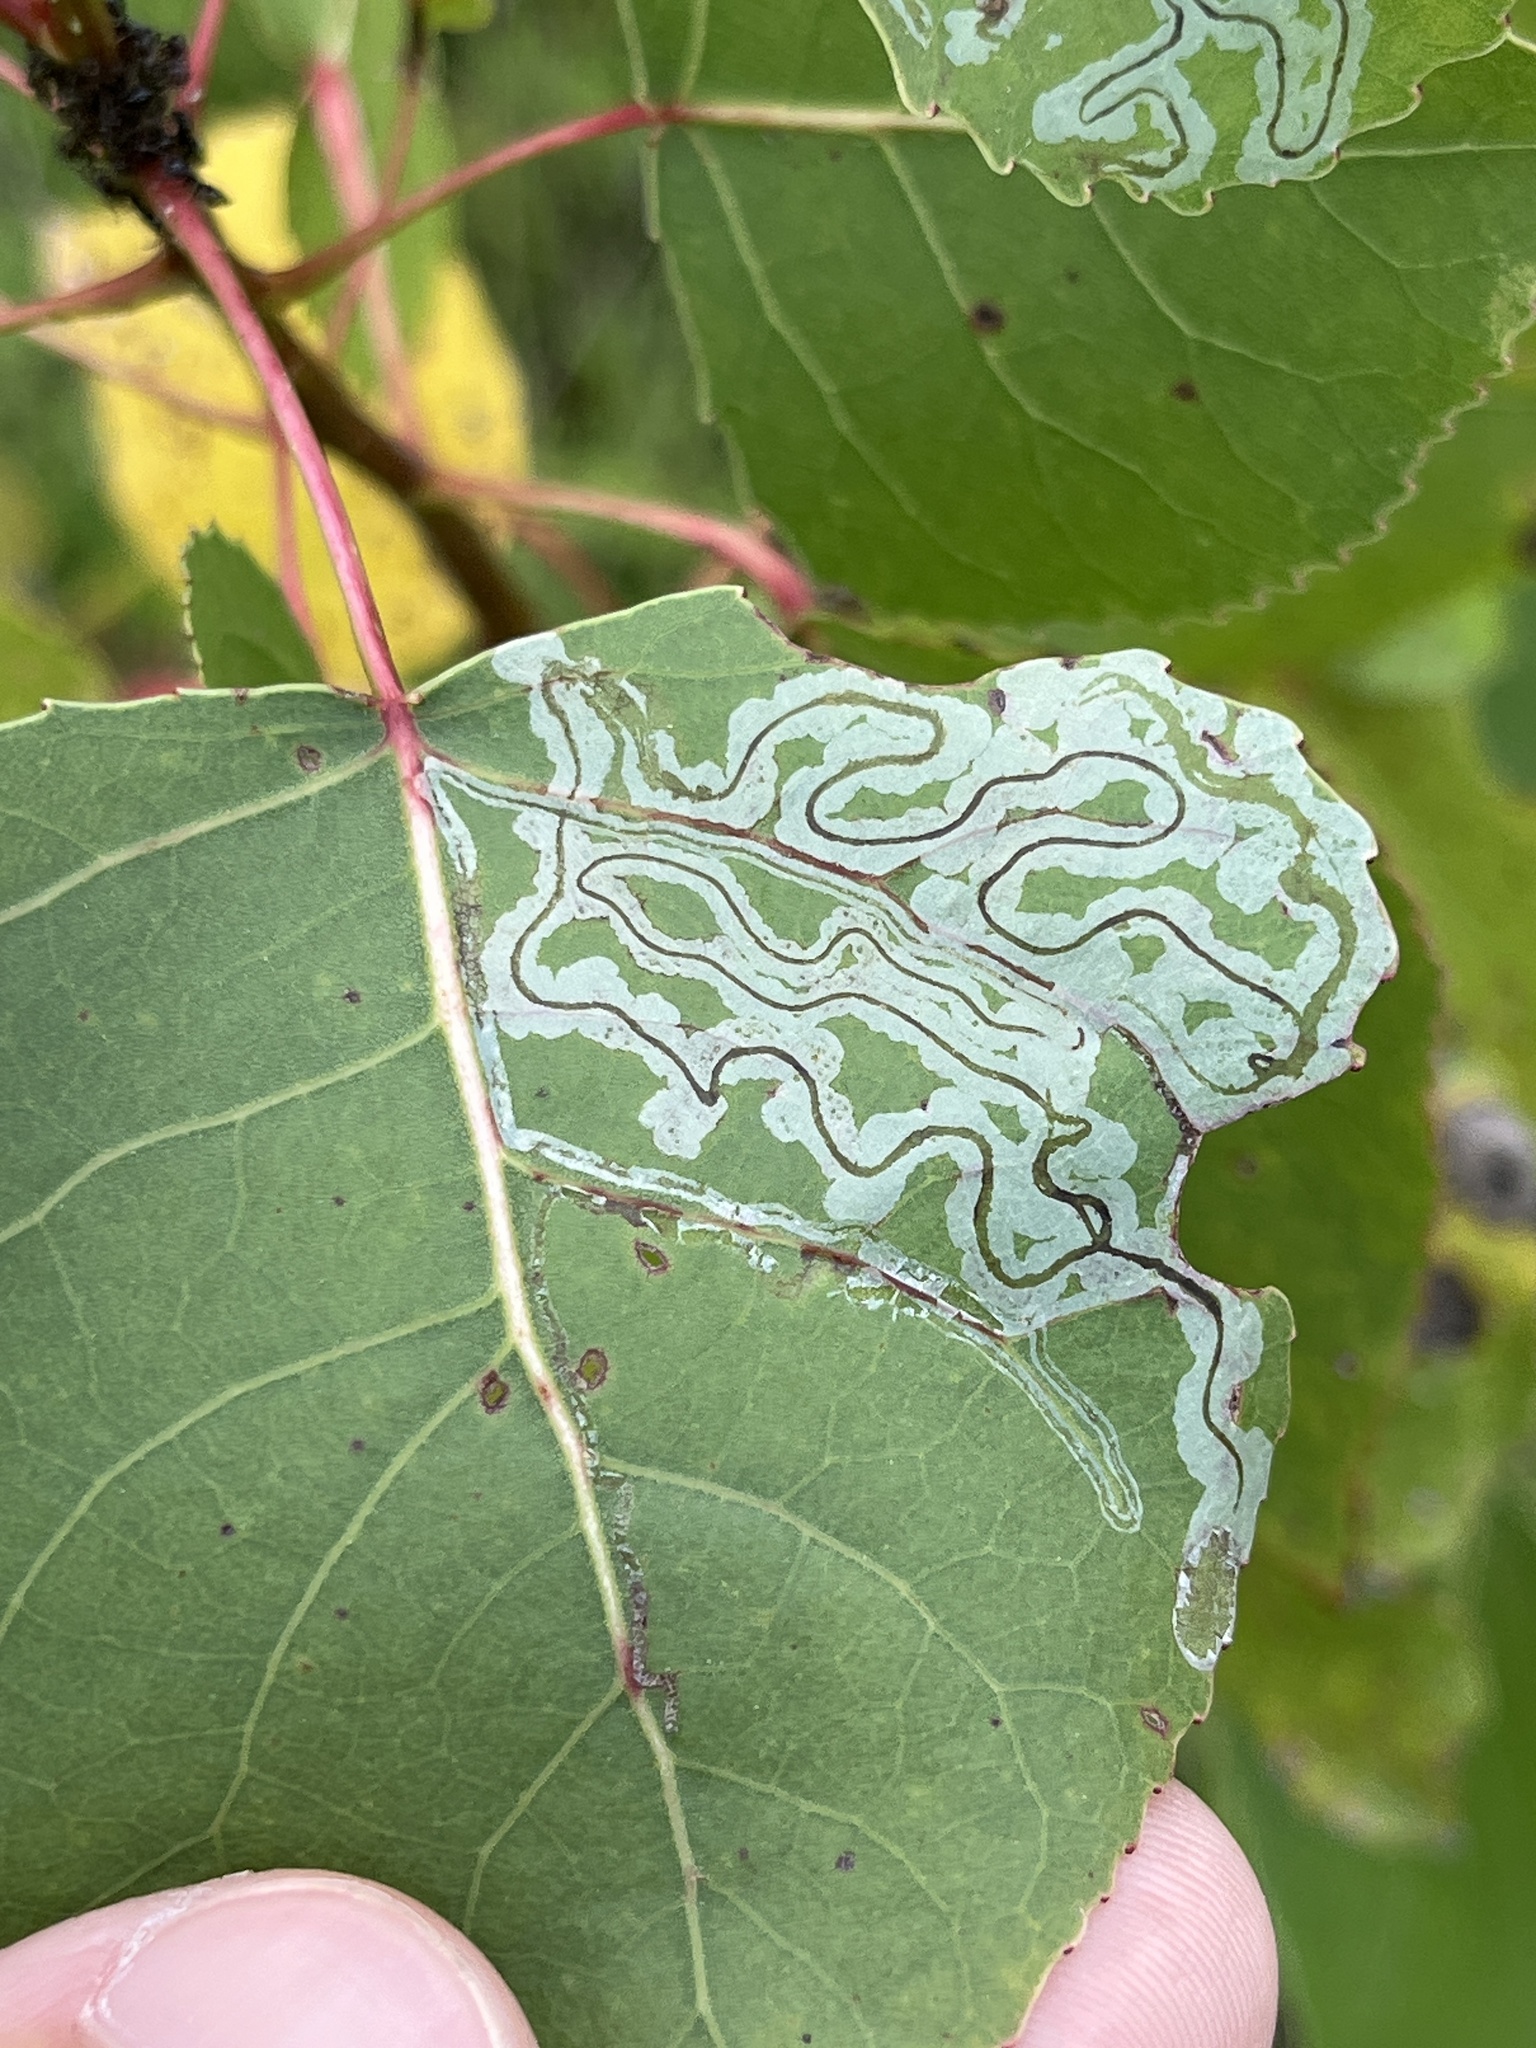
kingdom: Animalia
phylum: Arthropoda
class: Insecta
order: Lepidoptera
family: Gracillariidae
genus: Phyllocnistis
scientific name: Phyllocnistis populiella
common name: Aspen serpentine leafminer moth
